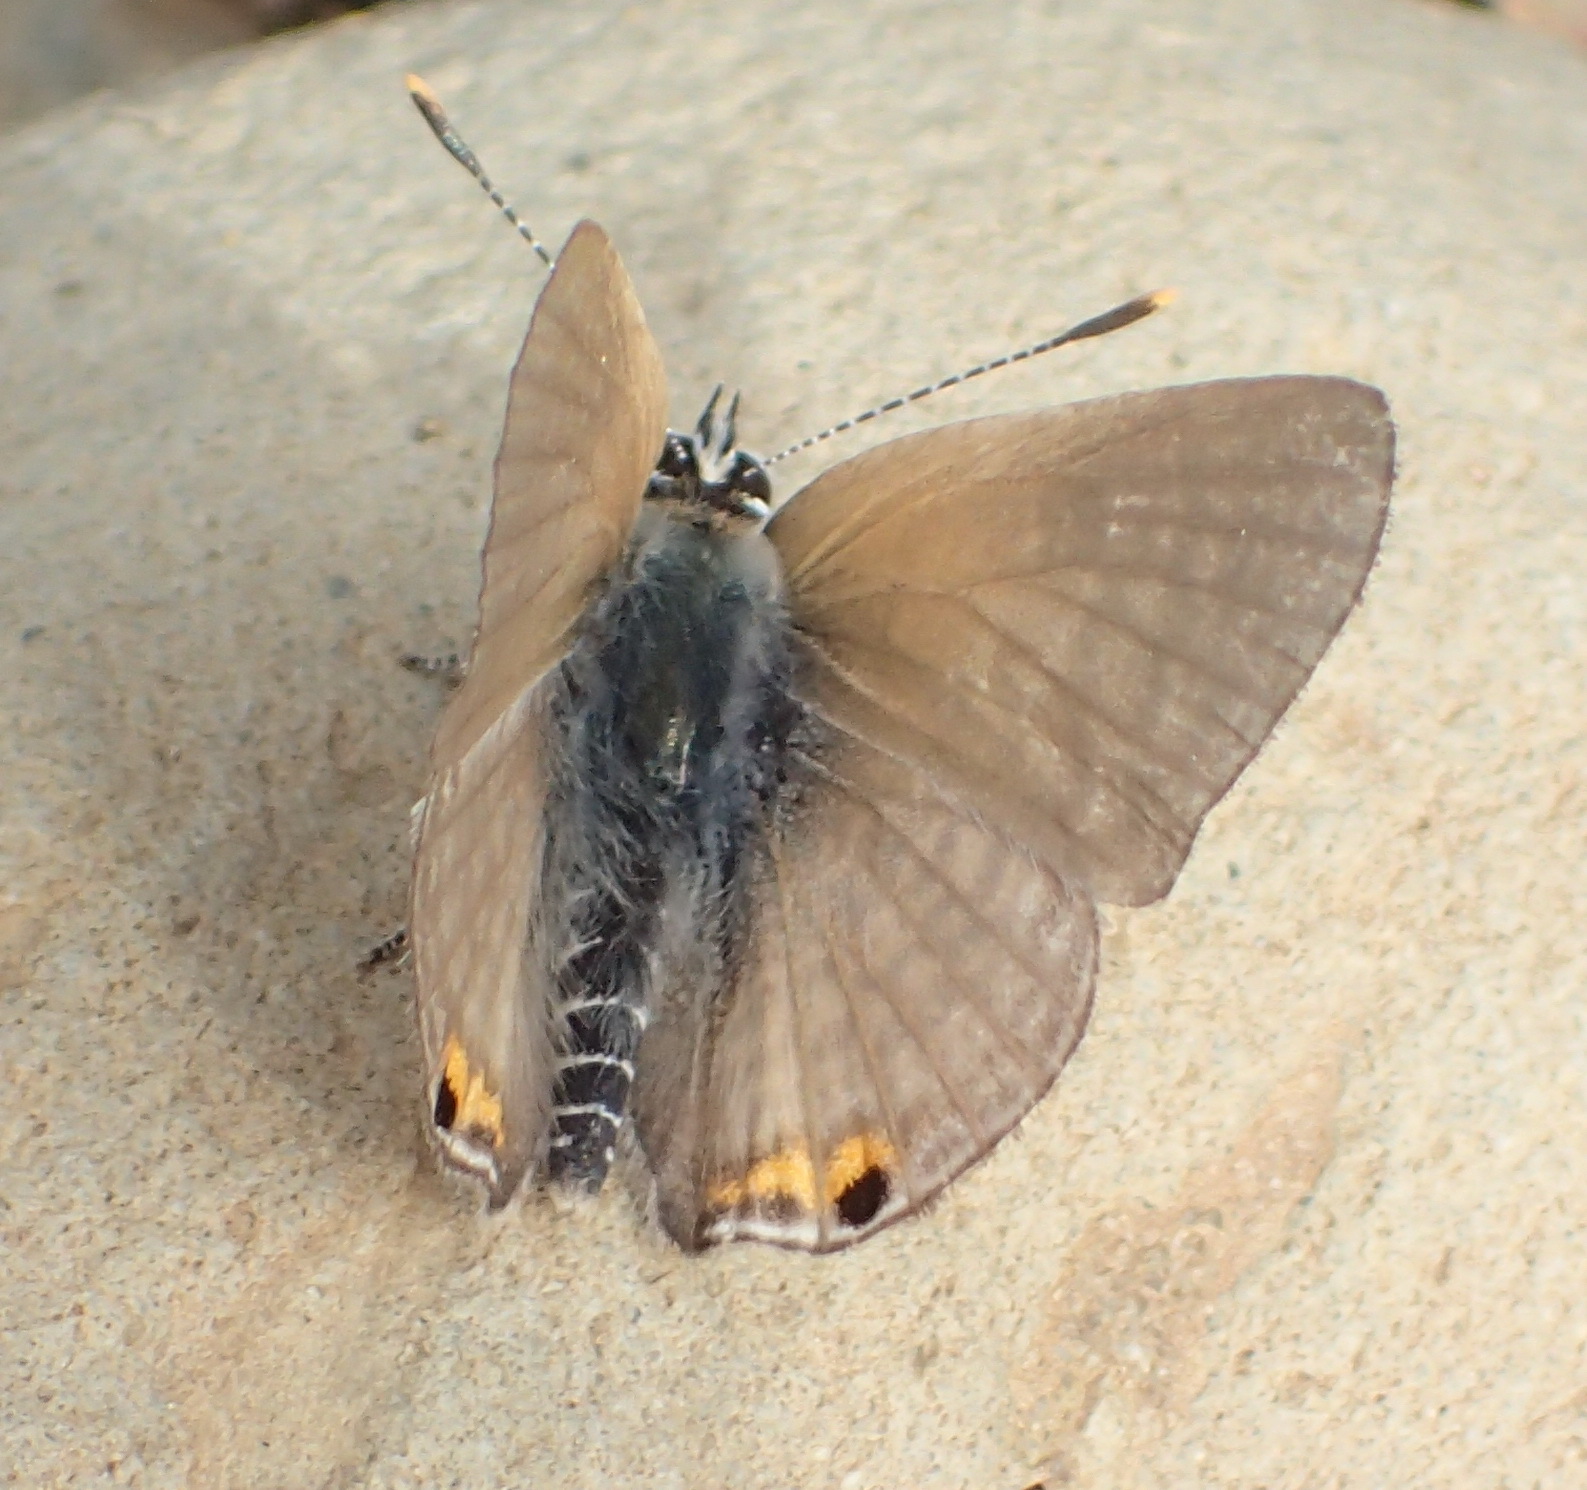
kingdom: Animalia
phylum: Arthropoda
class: Insecta
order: Lepidoptera
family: Lycaenidae
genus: Anthene
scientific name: Anthene amarah
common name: Black-striped hairtail
